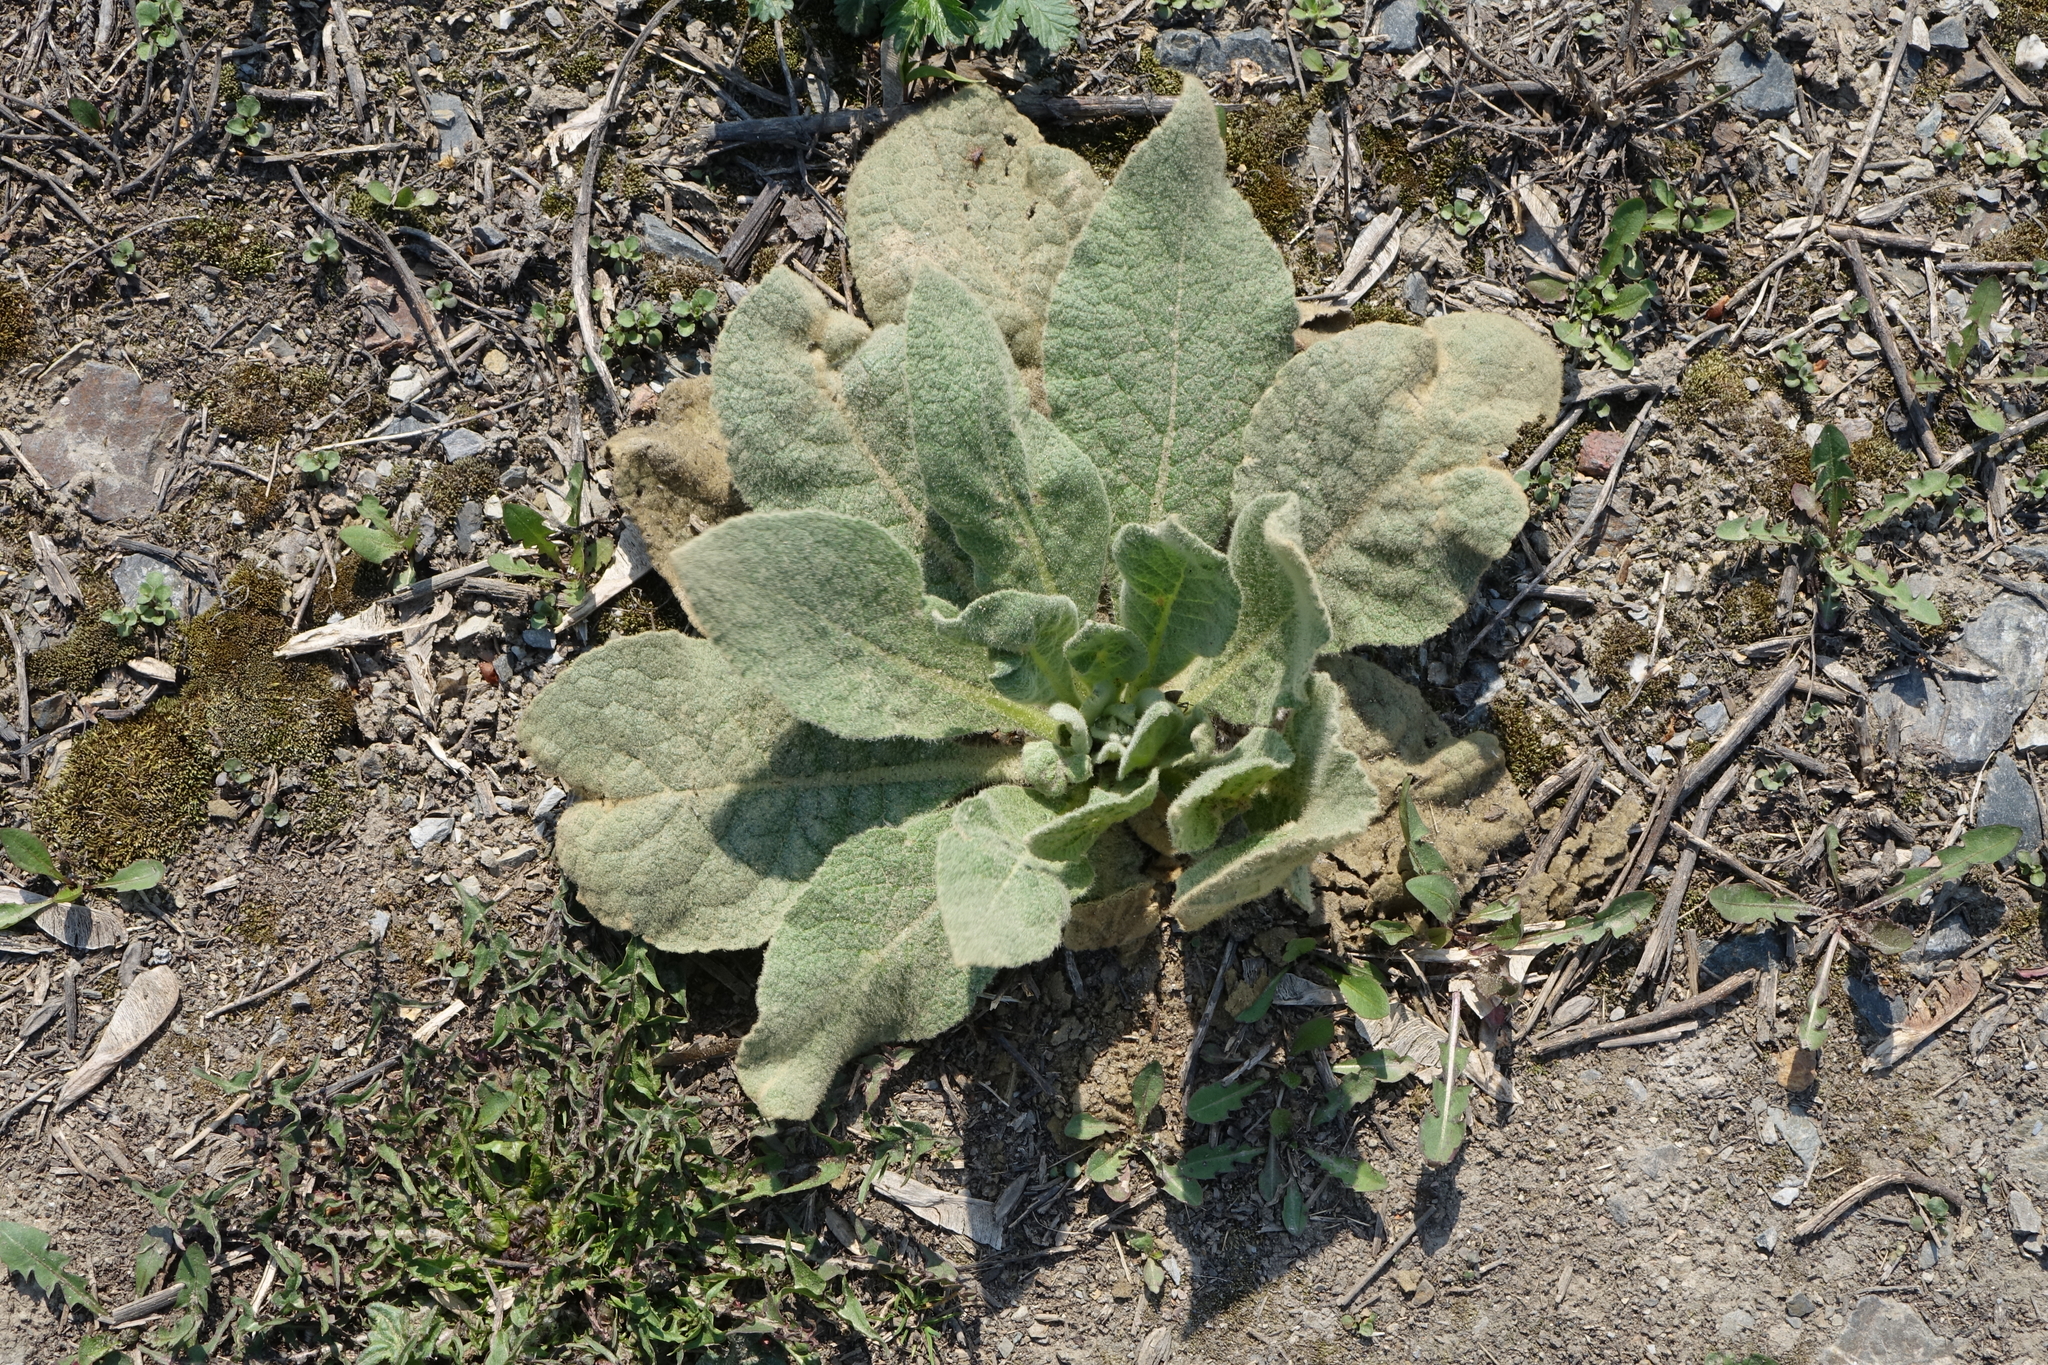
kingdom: Plantae
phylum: Tracheophyta
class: Magnoliopsida
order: Lamiales
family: Scrophulariaceae
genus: Verbascum
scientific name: Verbascum thapsus
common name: Common mullein
